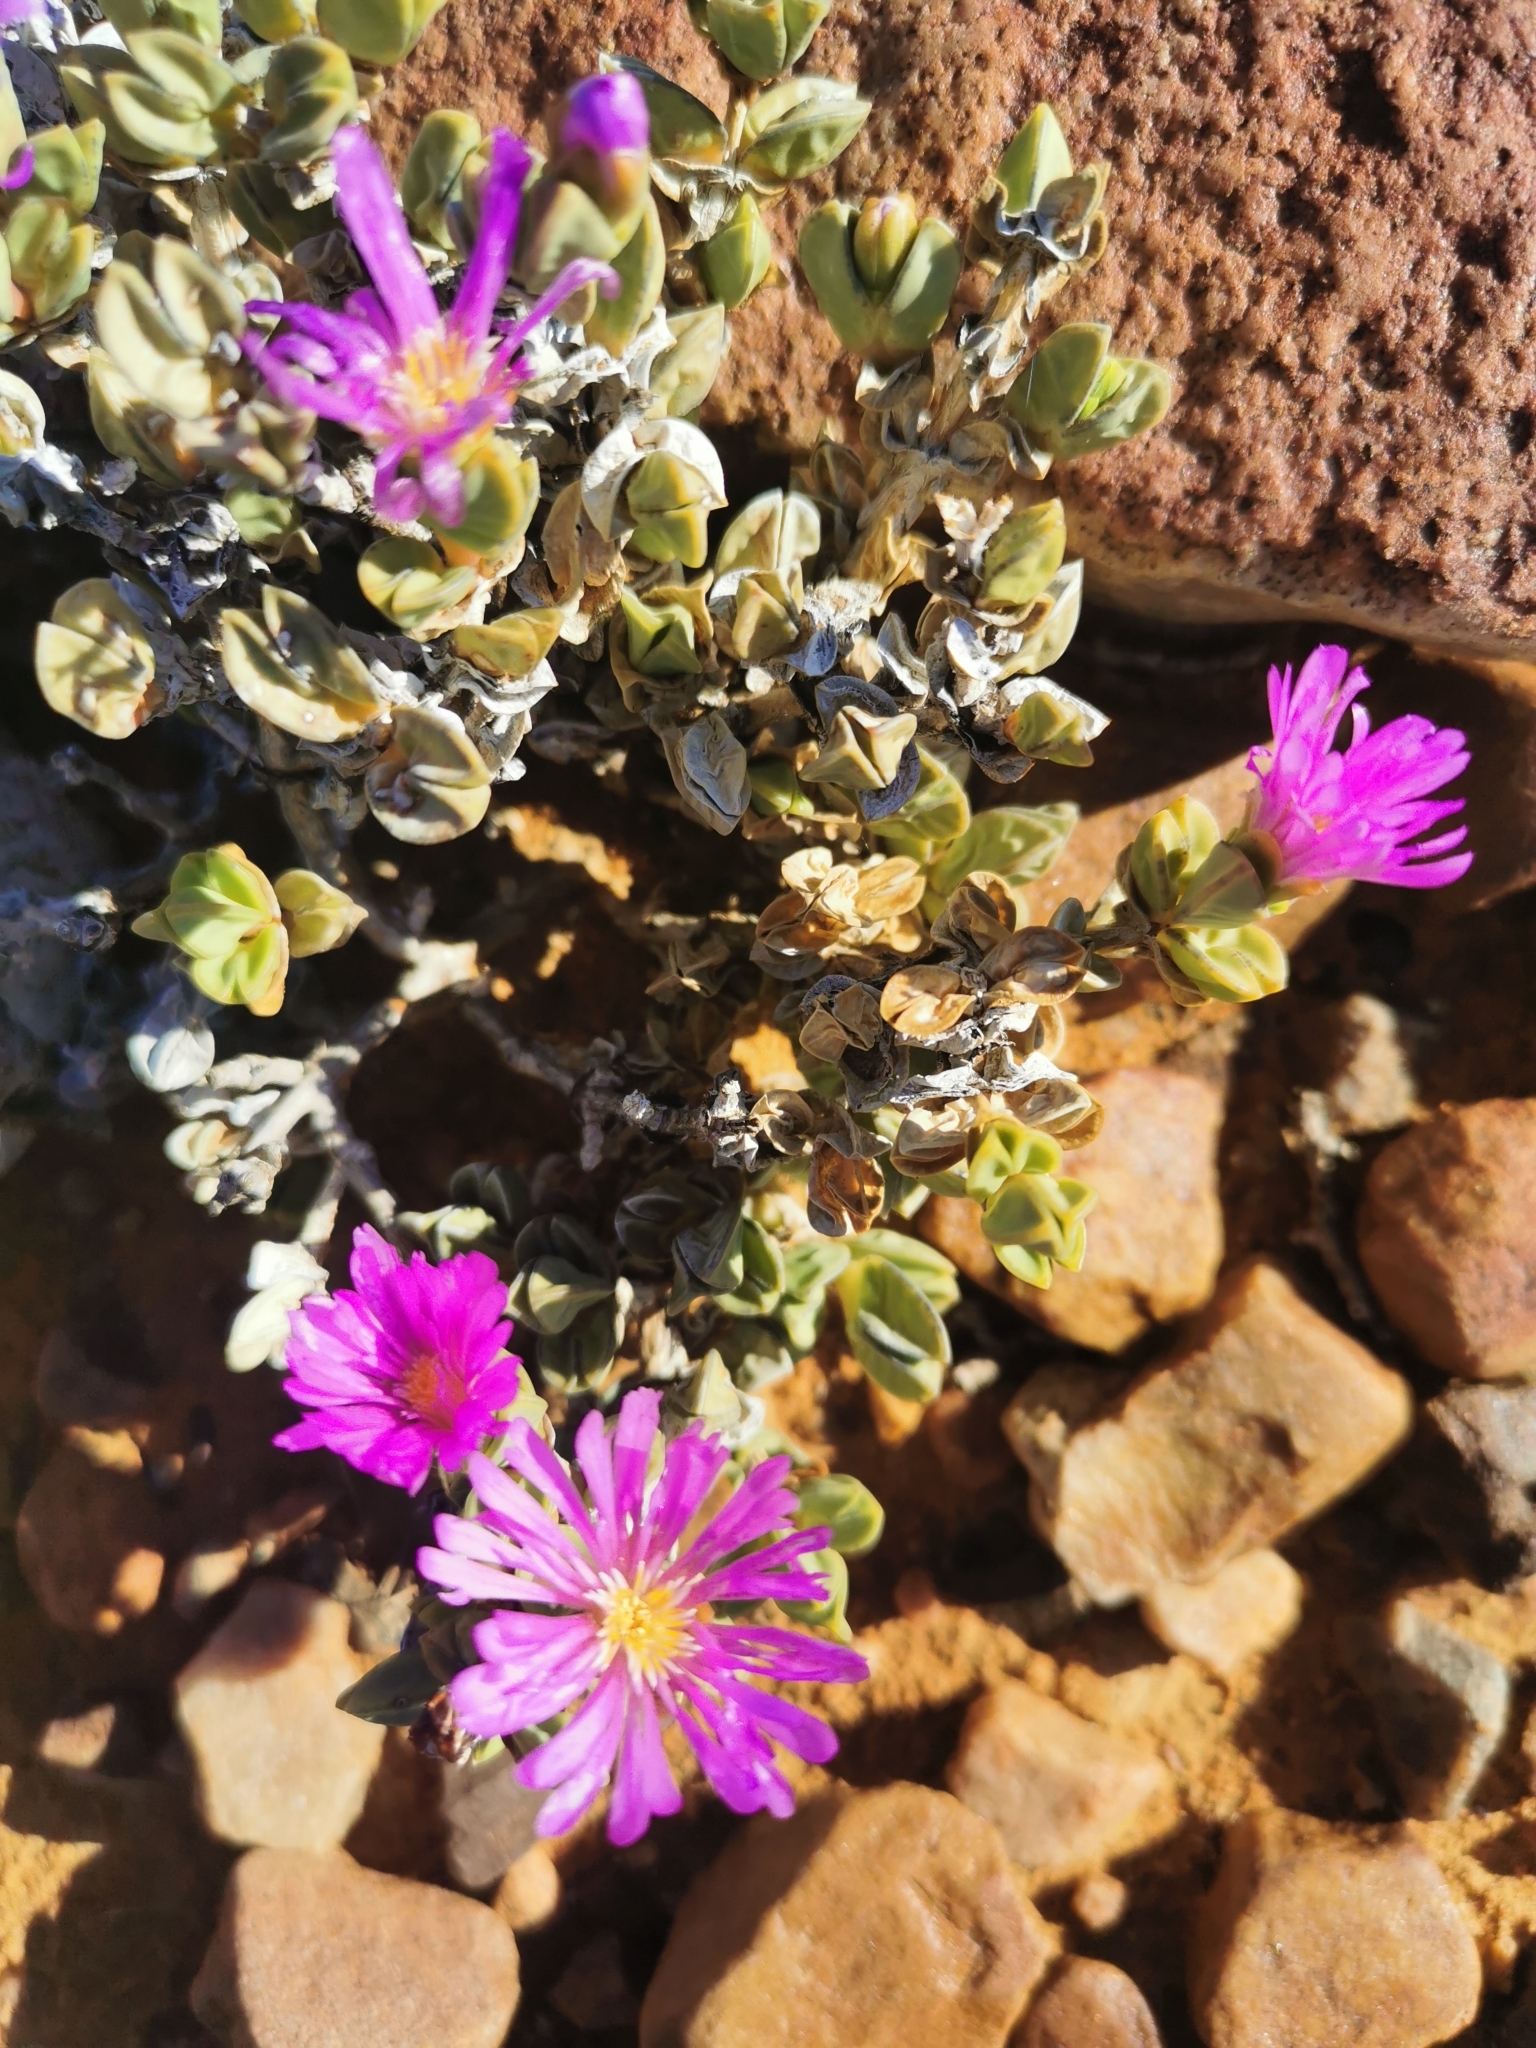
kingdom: Plantae
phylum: Tracheophyta
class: Magnoliopsida
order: Caryophyllales
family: Aizoaceae
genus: Braunsia
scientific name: Braunsia apiculata
